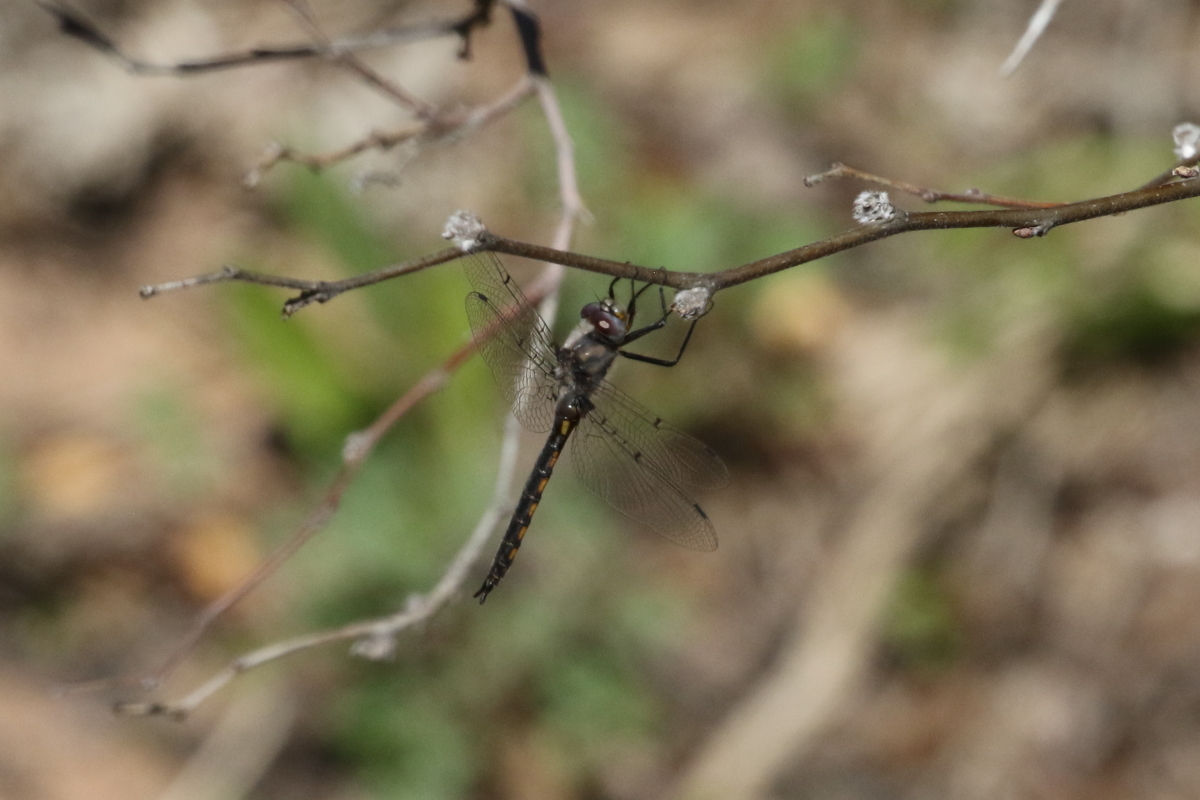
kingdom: Animalia
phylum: Arthropoda
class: Insecta
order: Odonata
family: Corduliidae
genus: Epitheca
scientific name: Epitheca petechialis
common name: Dot-winged baskettail
